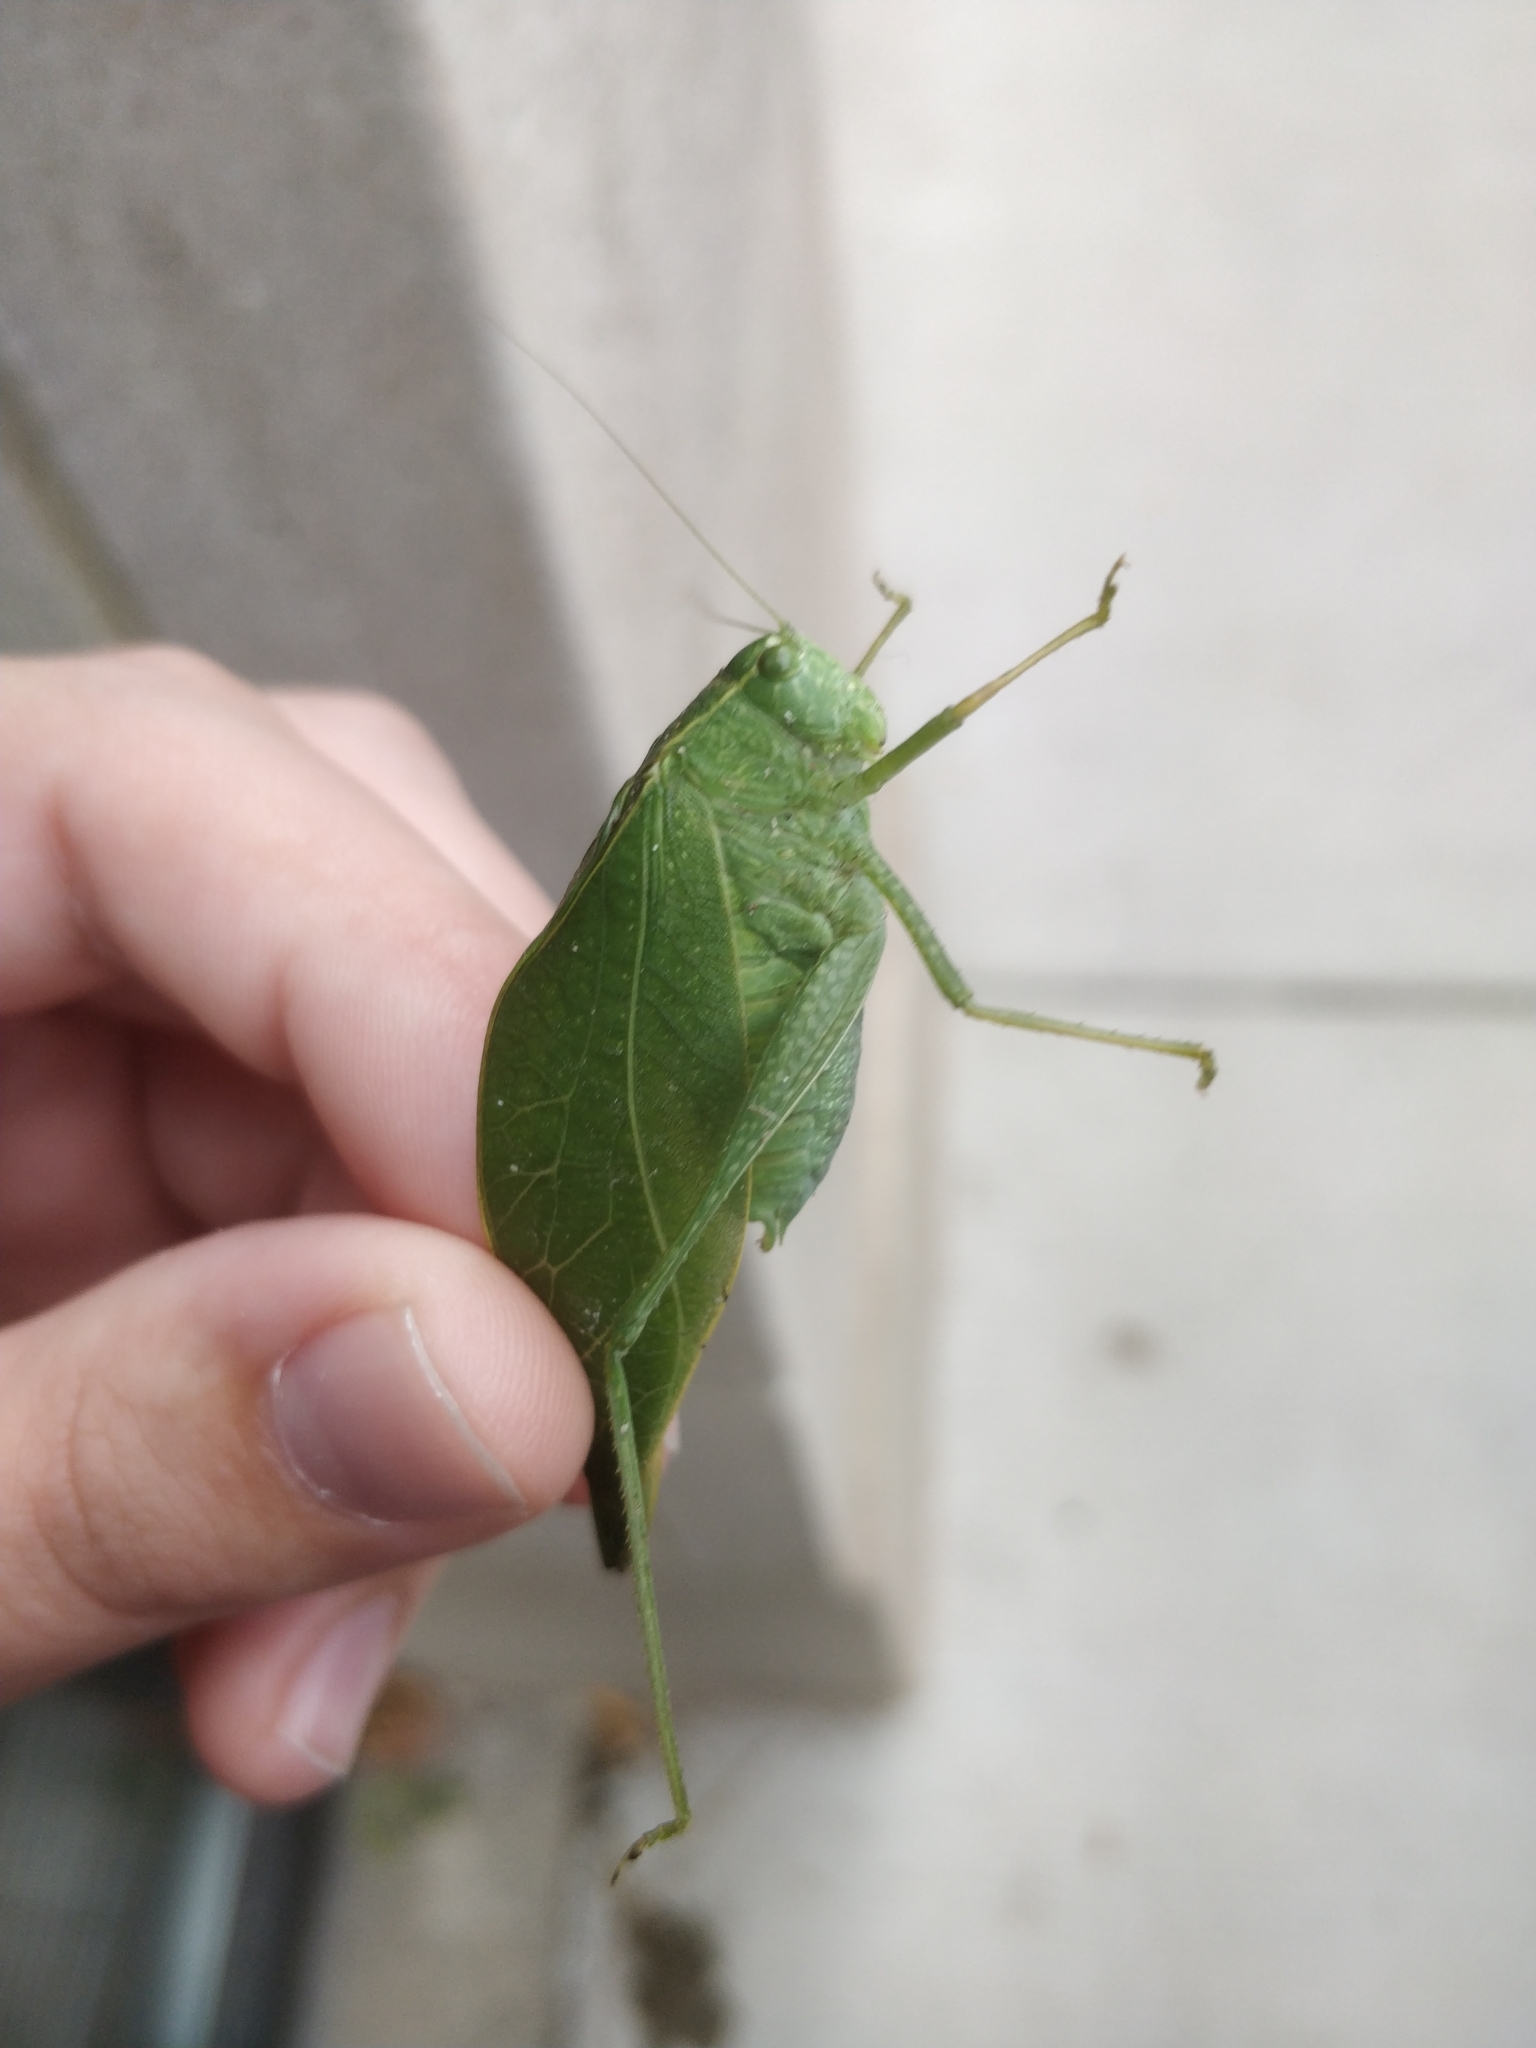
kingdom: Animalia
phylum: Arthropoda
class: Insecta
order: Orthoptera
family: Tettigoniidae
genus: Microcentrum
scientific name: Microcentrum rhombifolium
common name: Broad-winged katydid
